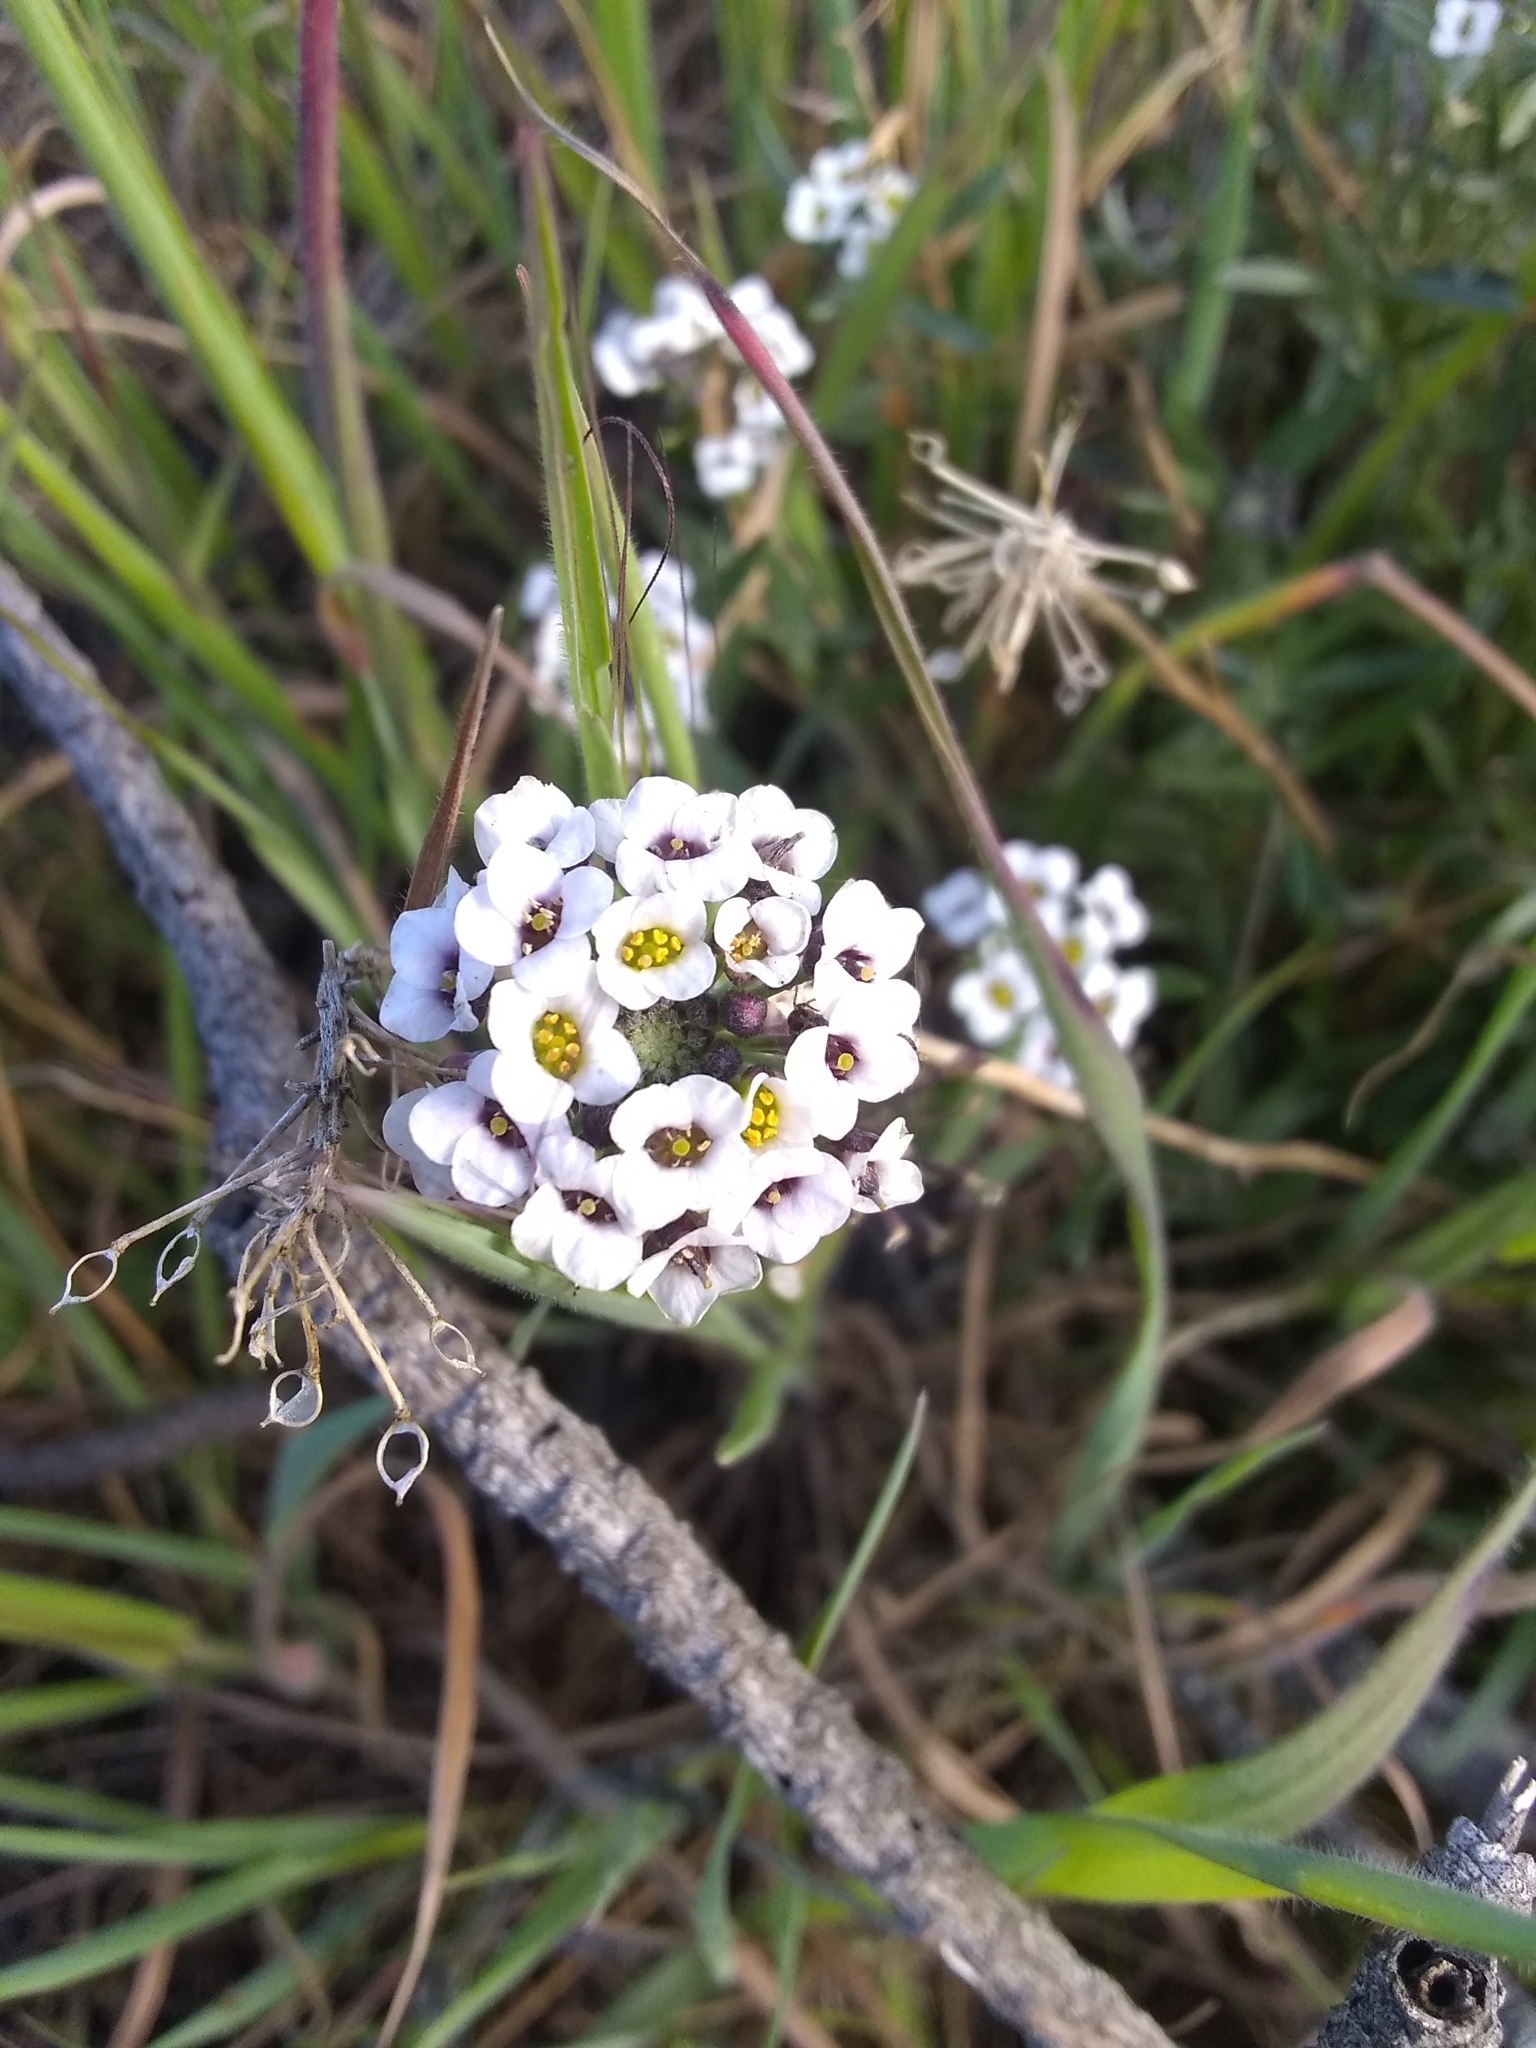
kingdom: Plantae
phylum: Tracheophyta
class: Magnoliopsida
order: Brassicales
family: Brassicaceae
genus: Lobularia
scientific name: Lobularia maritima
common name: Sweet alison
